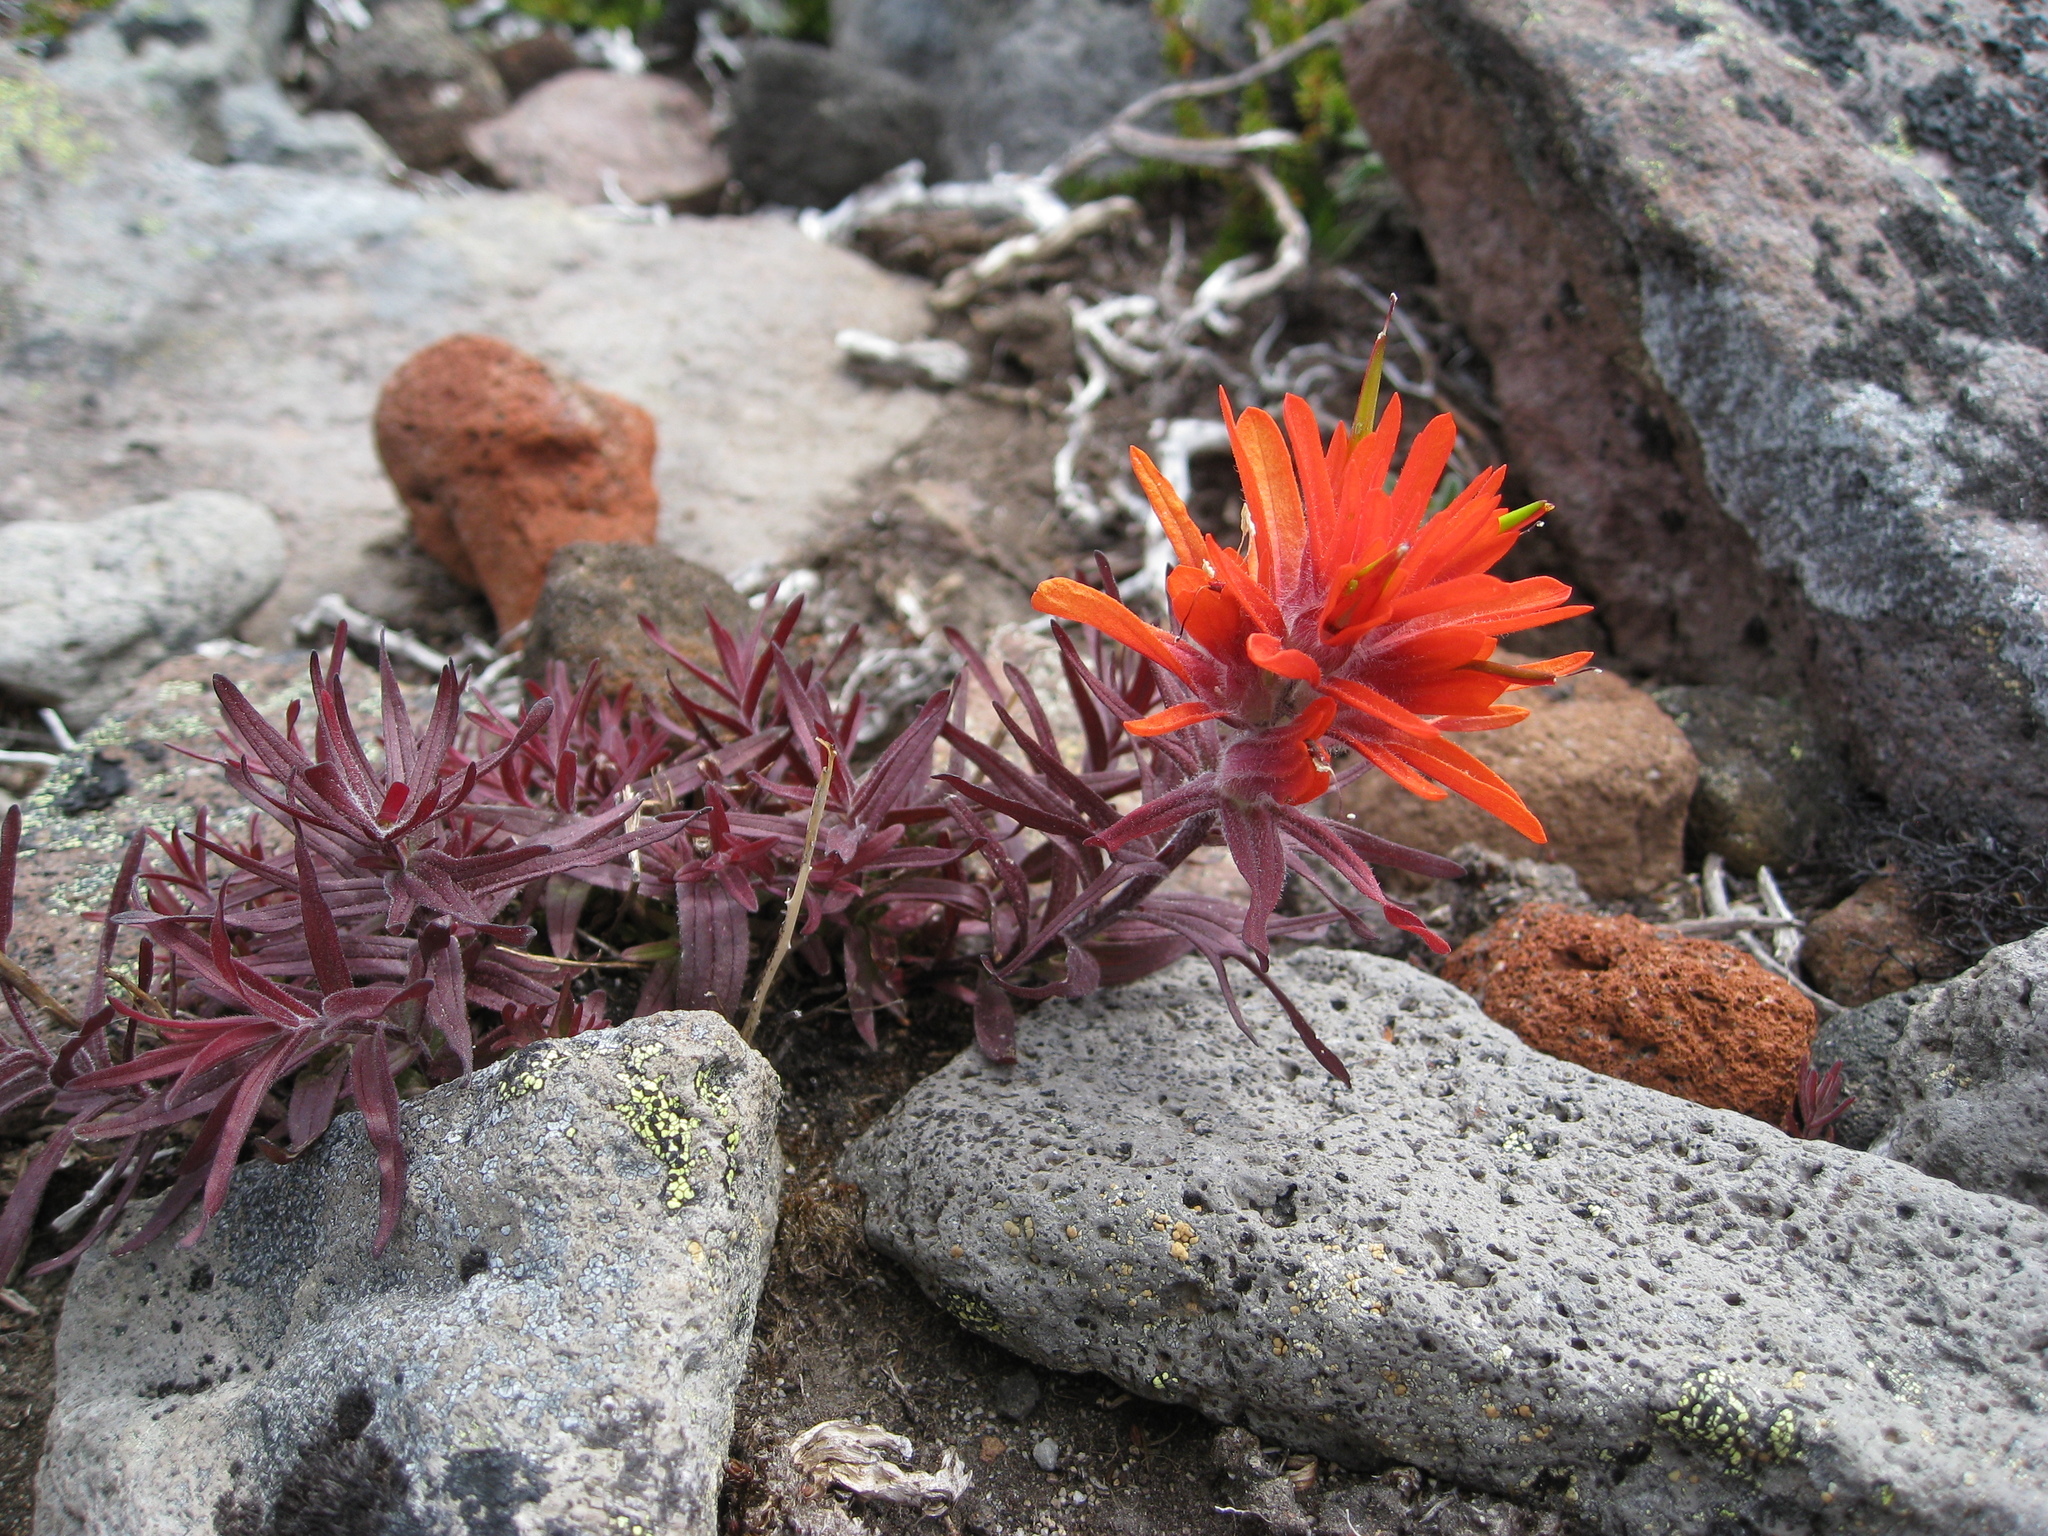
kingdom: Plantae
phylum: Tracheophyta
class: Magnoliopsida
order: Lamiales
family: Orobanchaceae
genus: Castilleja
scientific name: Castilleja rupicola
